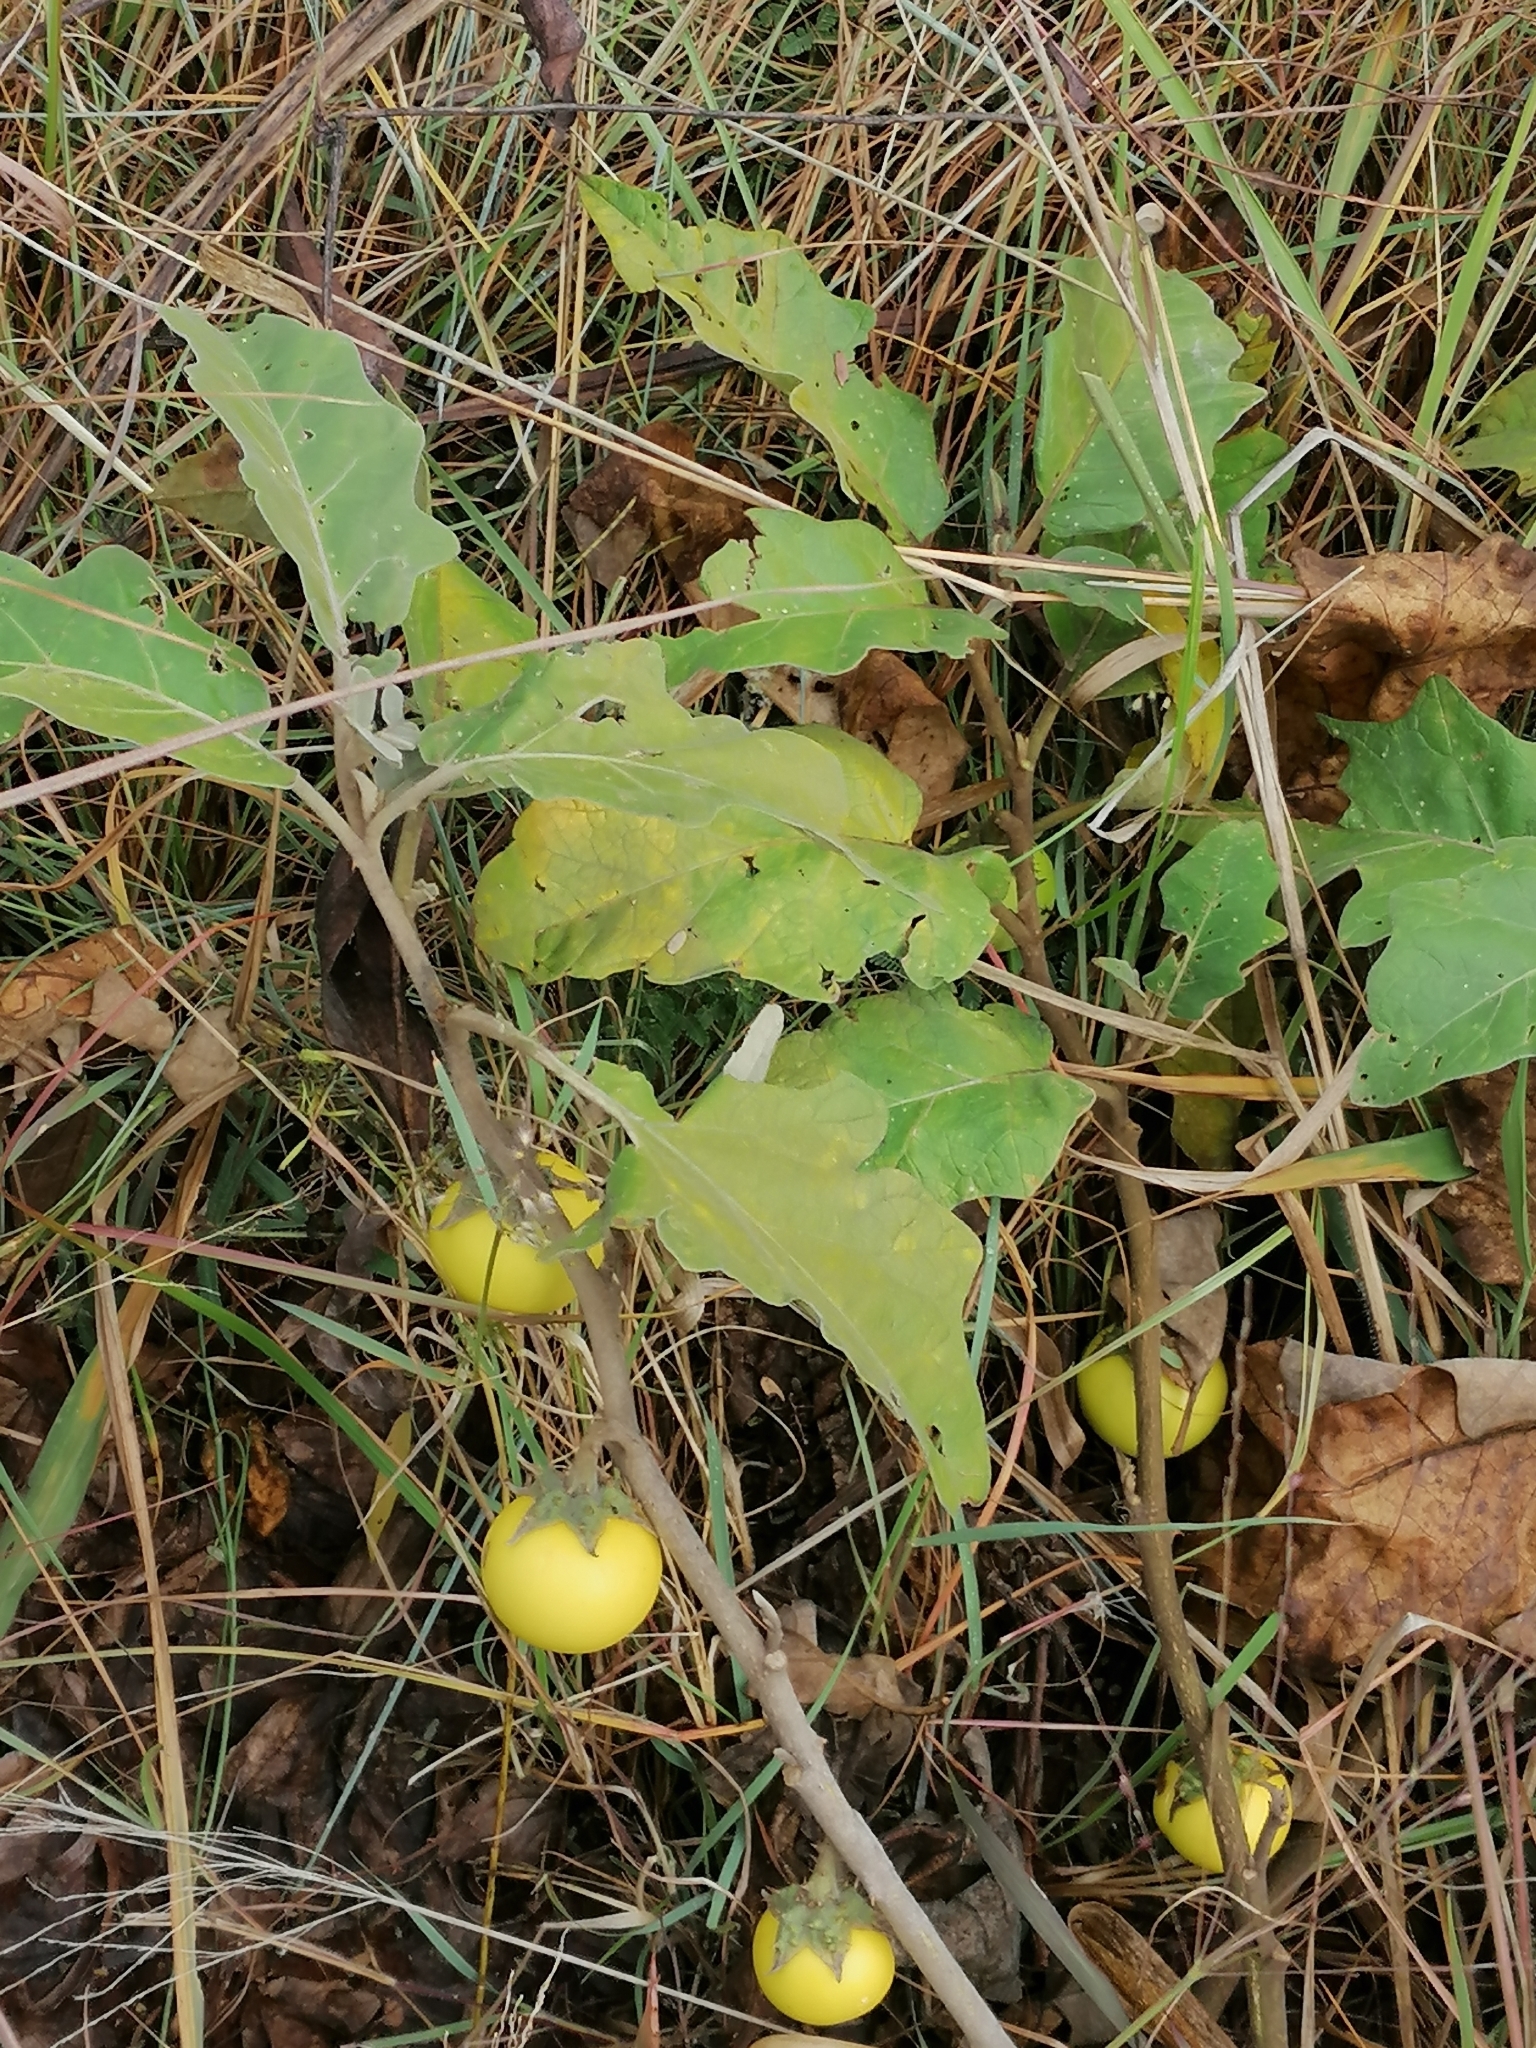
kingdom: Plantae
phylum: Tracheophyta
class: Magnoliopsida
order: Solanales
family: Solanaceae
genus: Solanum
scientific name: Solanum lichtensteinii
